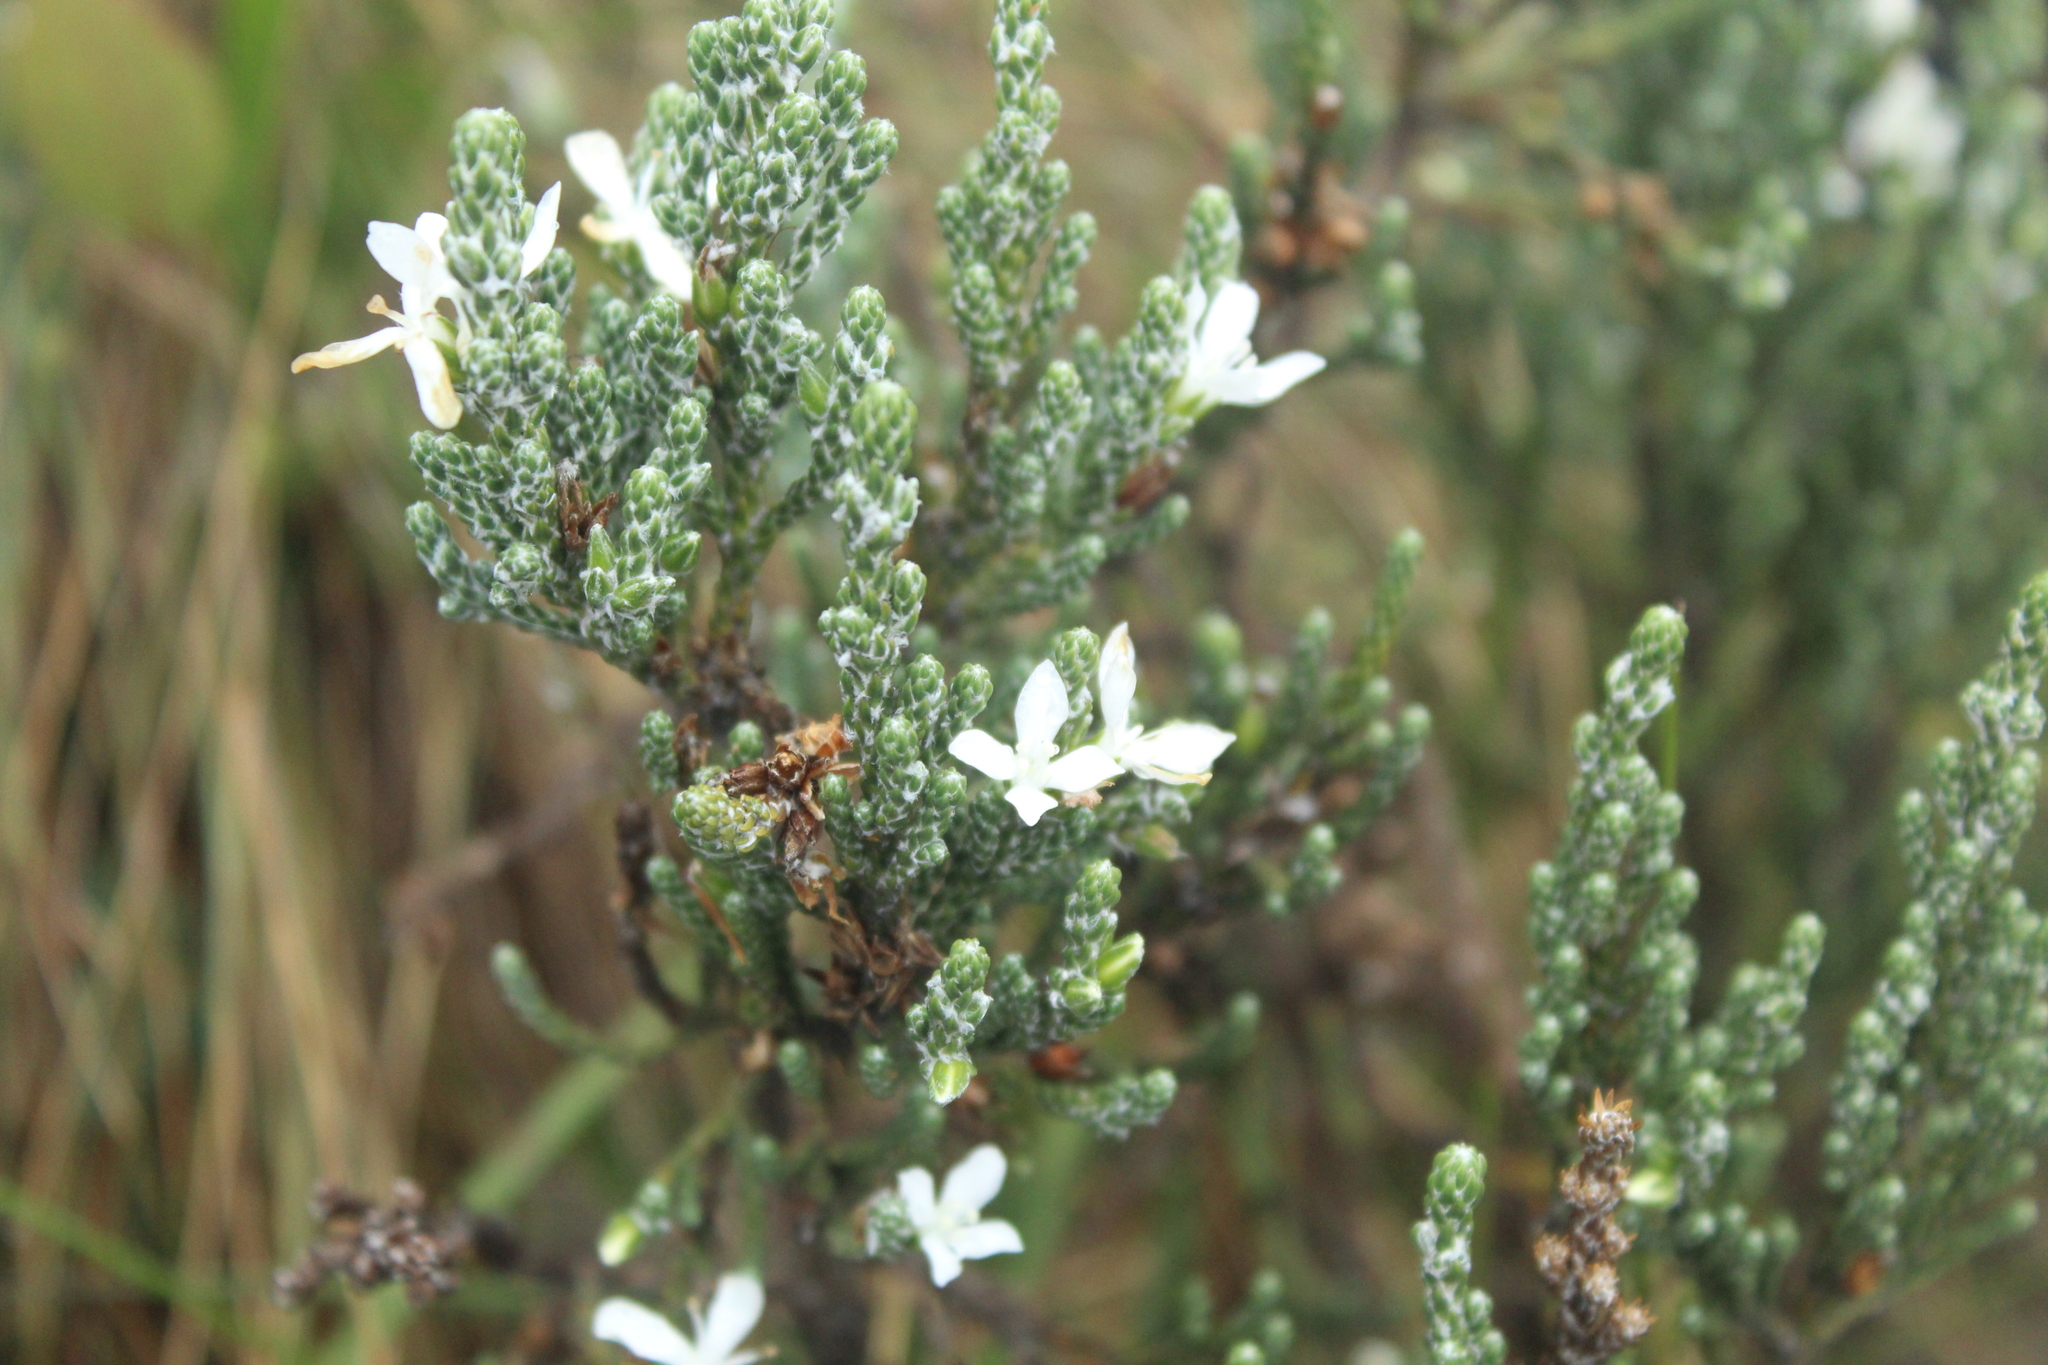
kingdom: Plantae
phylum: Tracheophyta
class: Magnoliopsida
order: Lamiales
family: Plantaginaceae
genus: Aragoa
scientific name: Aragoa cupressina
